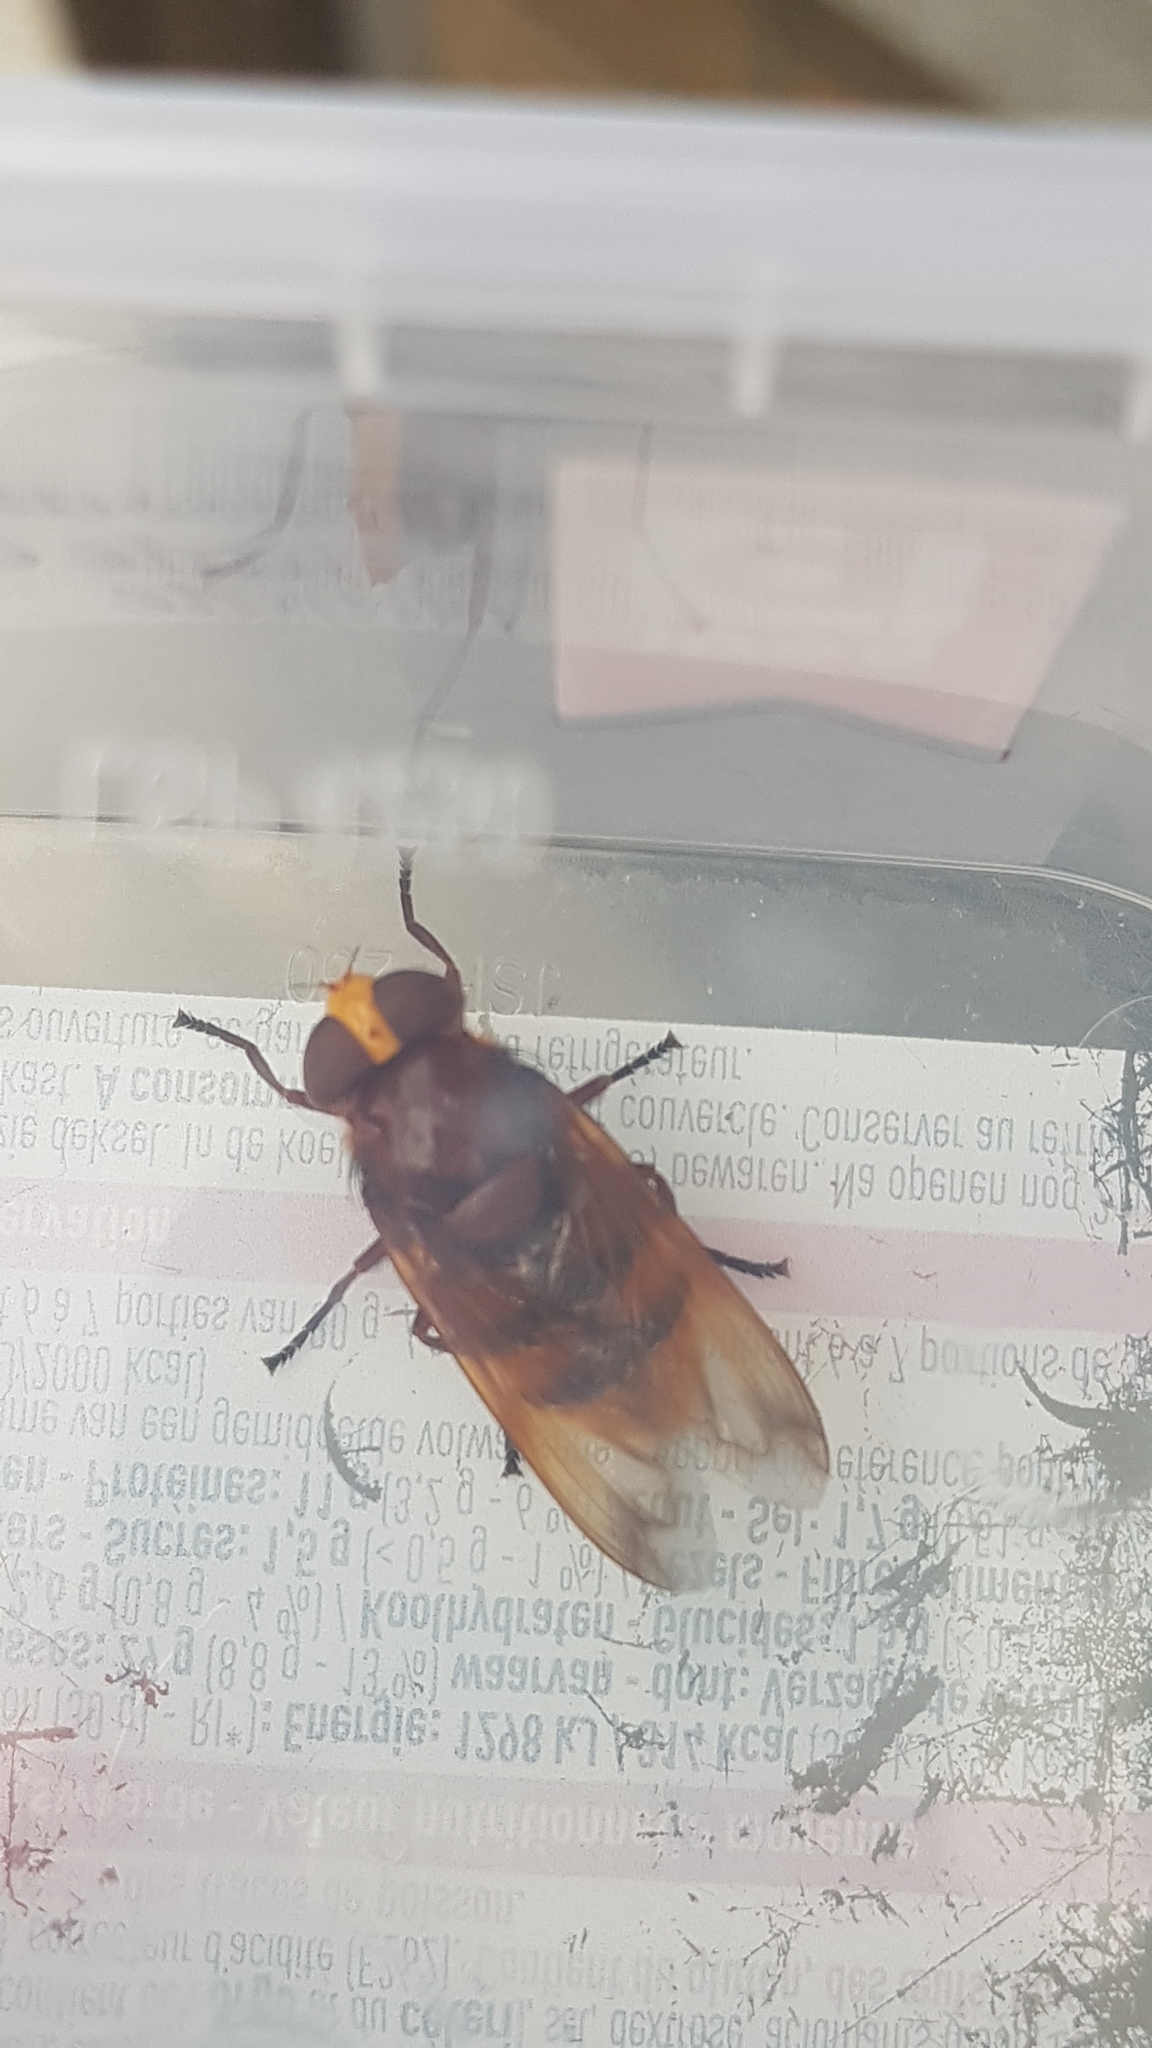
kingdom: Animalia
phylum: Arthropoda
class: Insecta
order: Diptera
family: Syrphidae
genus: Volucella
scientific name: Volucella zonaria
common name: Hornet hoverfly
